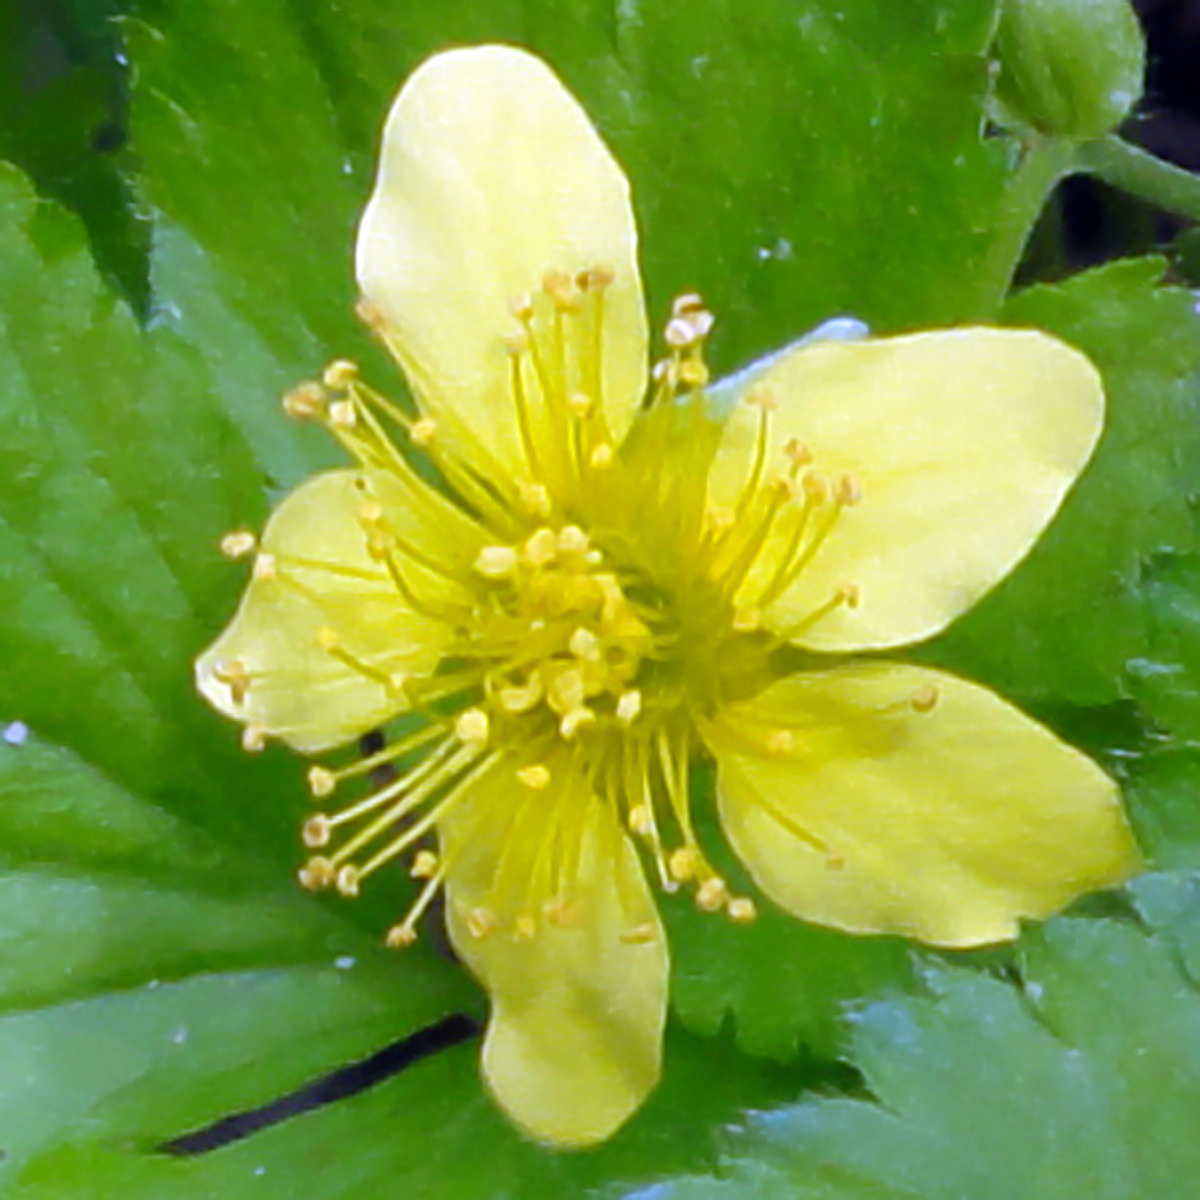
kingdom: Plantae
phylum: Tracheophyta
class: Magnoliopsida
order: Rosales
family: Rosaceae
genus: Geum
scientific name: Geum fragarioides
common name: Appalachian barren strawberry
